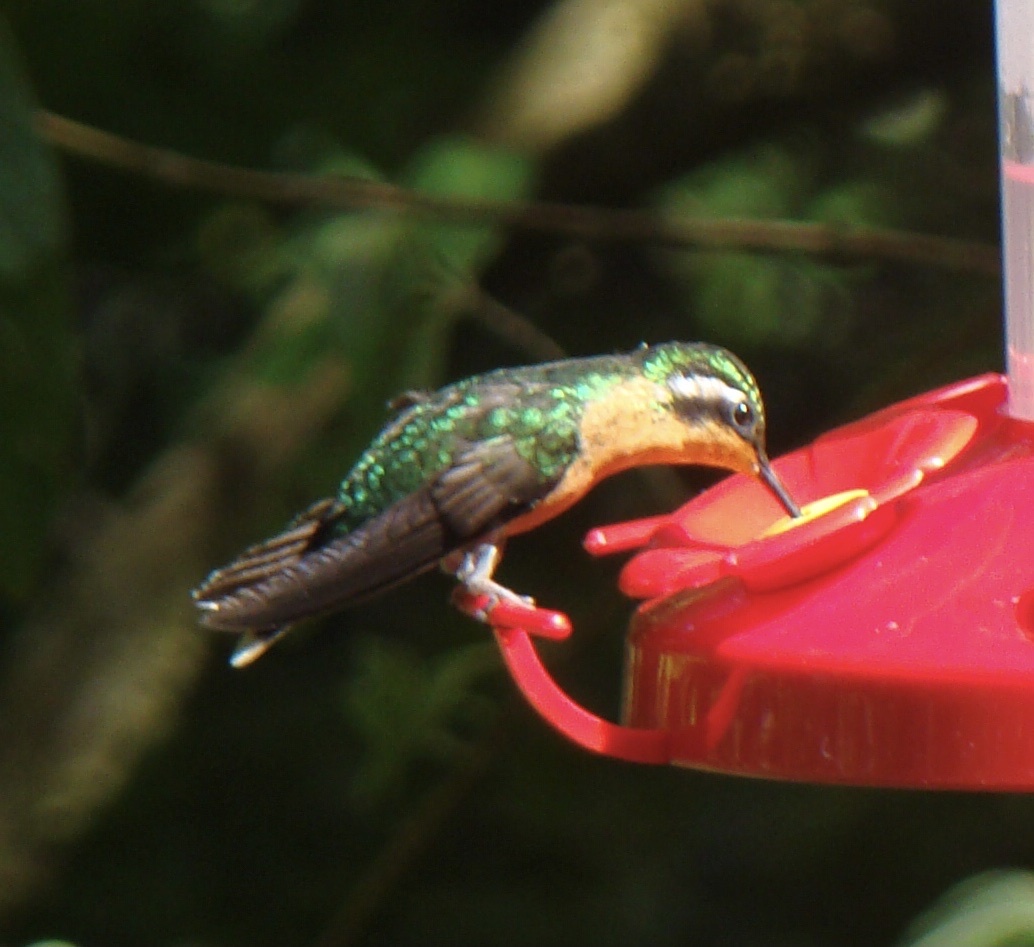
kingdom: Animalia
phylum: Chordata
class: Aves
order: Apodiformes
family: Trochilidae
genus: Lampornis
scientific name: Lampornis calolaemus
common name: Purple-throated mountain-gem
